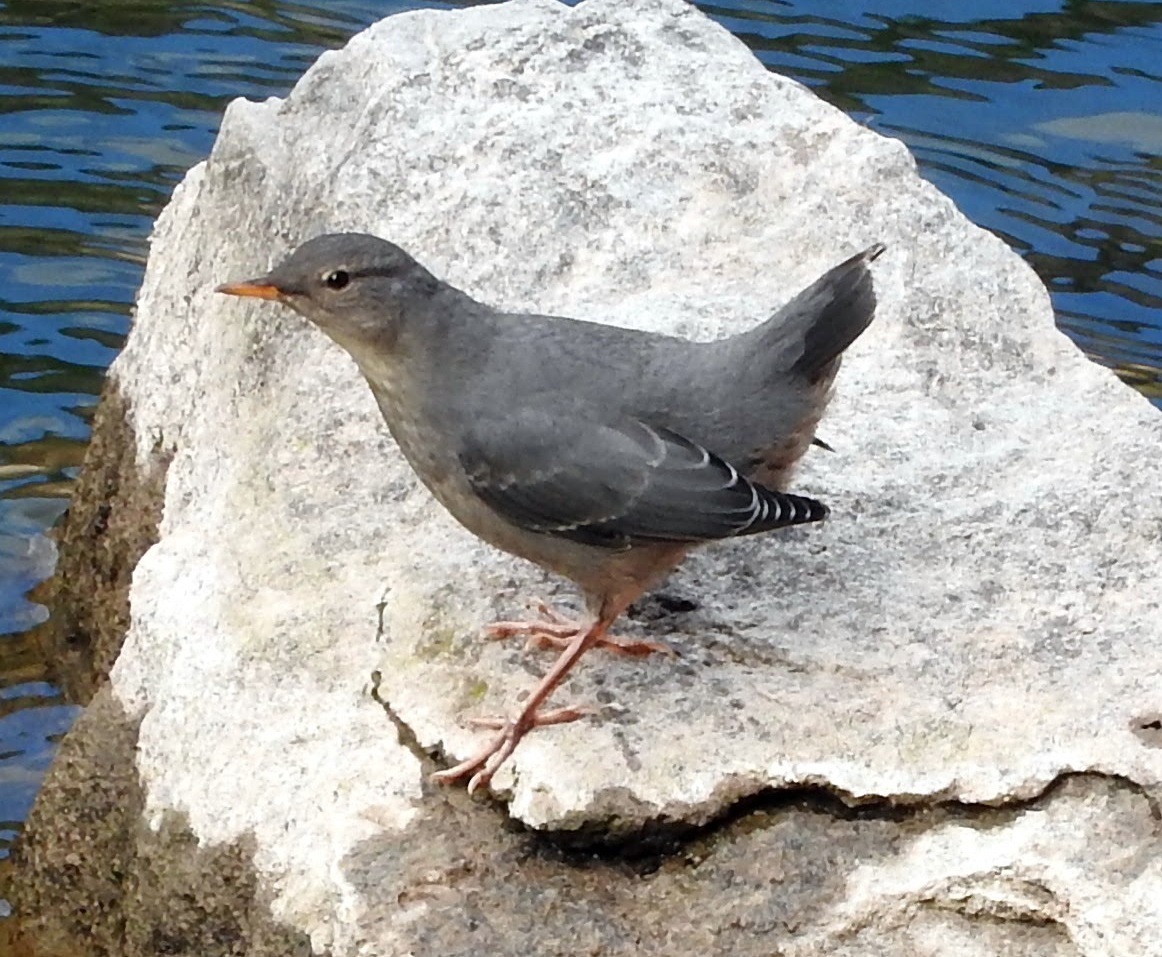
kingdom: Animalia
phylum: Chordata
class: Aves
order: Passeriformes
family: Cinclidae
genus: Cinclus
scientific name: Cinclus mexicanus
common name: American dipper
